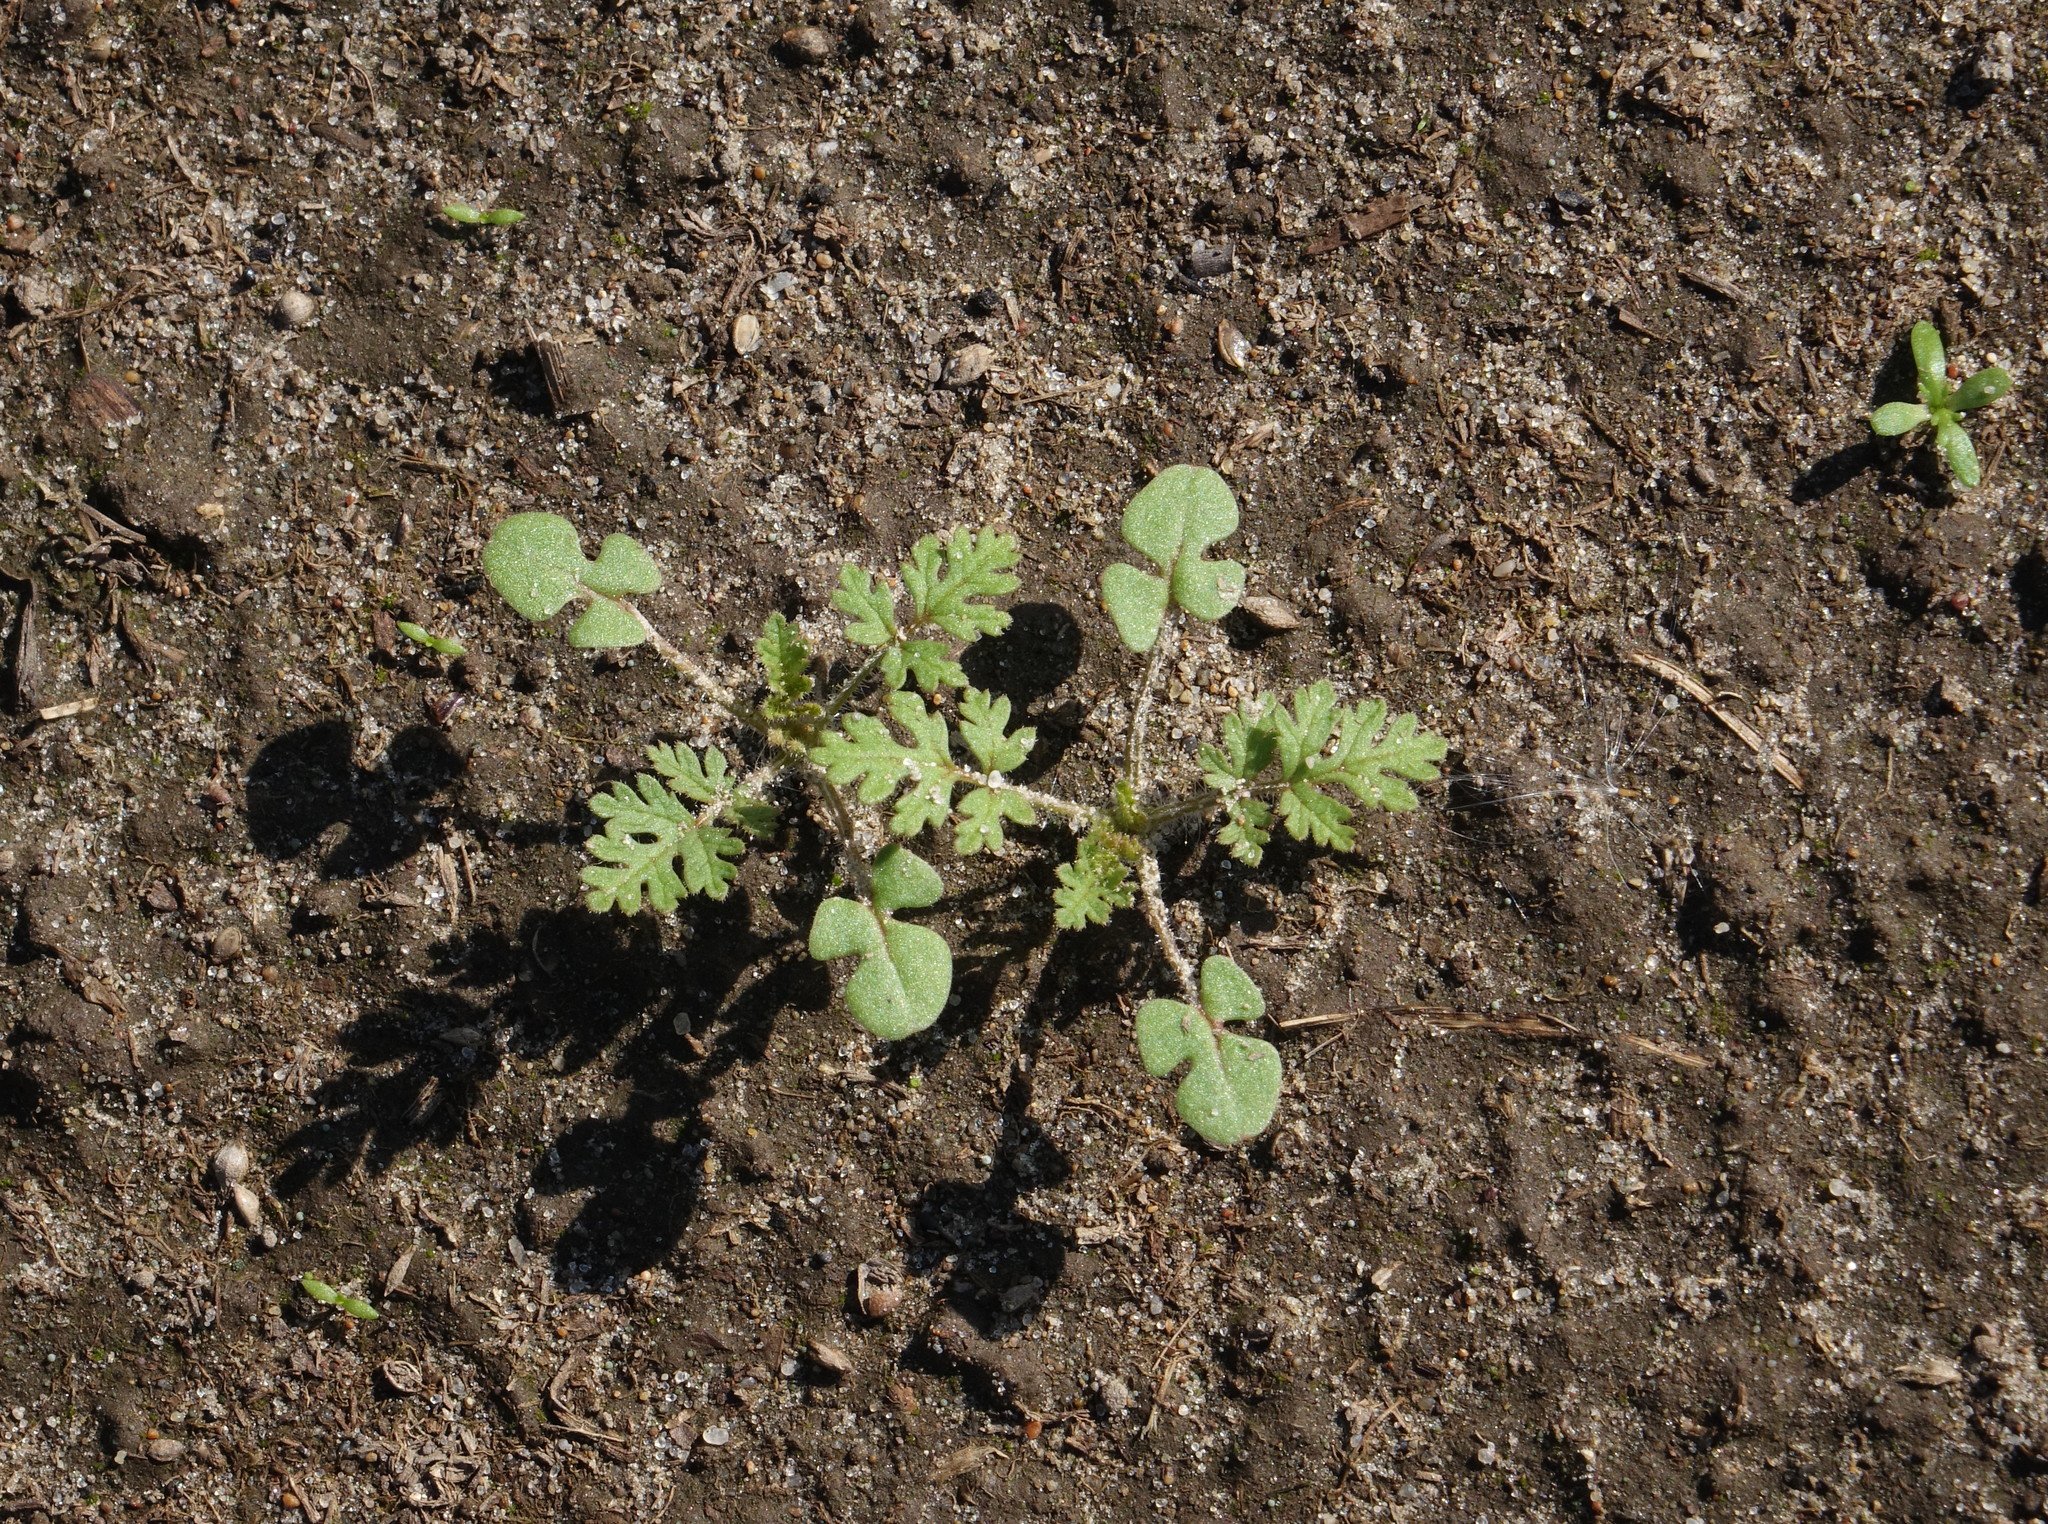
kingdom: Plantae
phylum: Tracheophyta
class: Magnoliopsida
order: Geraniales
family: Geraniaceae
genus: Erodium
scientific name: Erodium cicutarium
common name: Common stork's-bill
